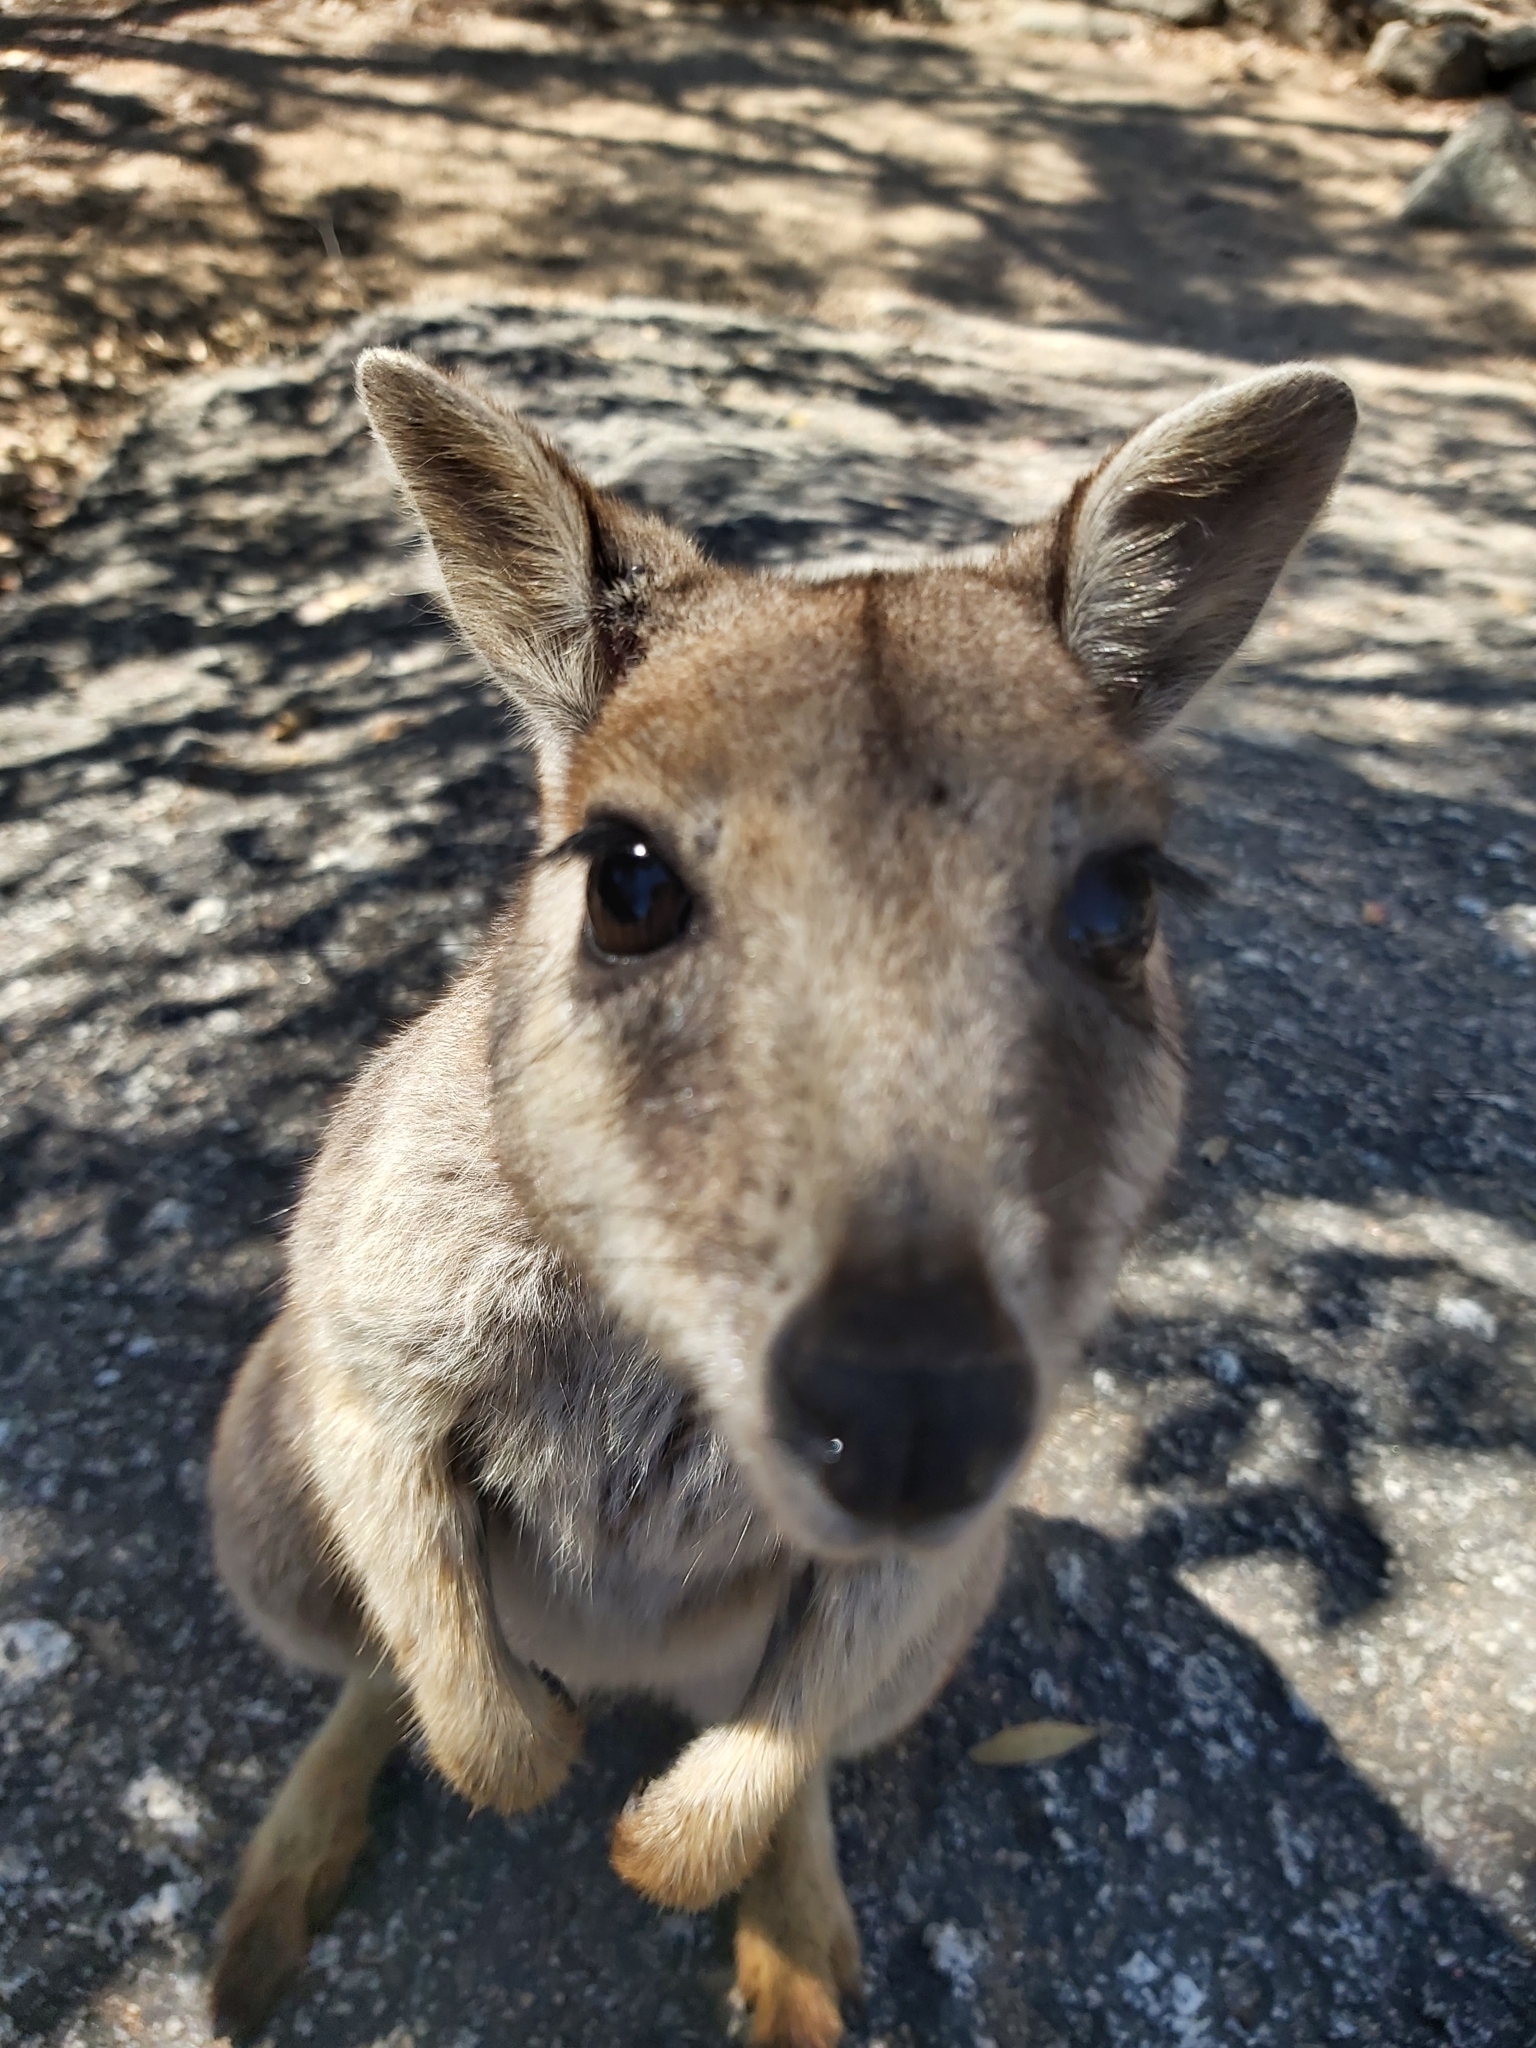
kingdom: Animalia
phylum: Chordata
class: Mammalia
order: Diprotodontia
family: Macropodidae
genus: Petrogale
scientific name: Petrogale mareeba
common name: Mareeba rock-wallaby
